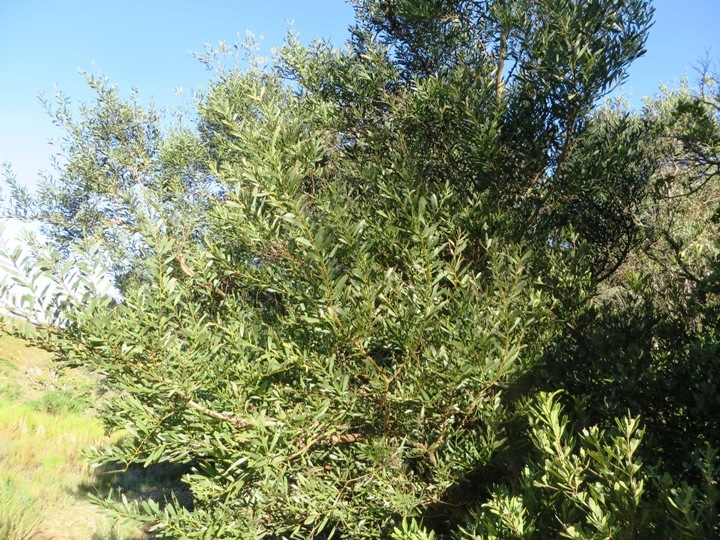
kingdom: Plantae
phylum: Tracheophyta
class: Magnoliopsida
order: Fabales
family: Fabaceae
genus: Acacia
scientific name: Acacia longifolia
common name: Sydney golden wattle
